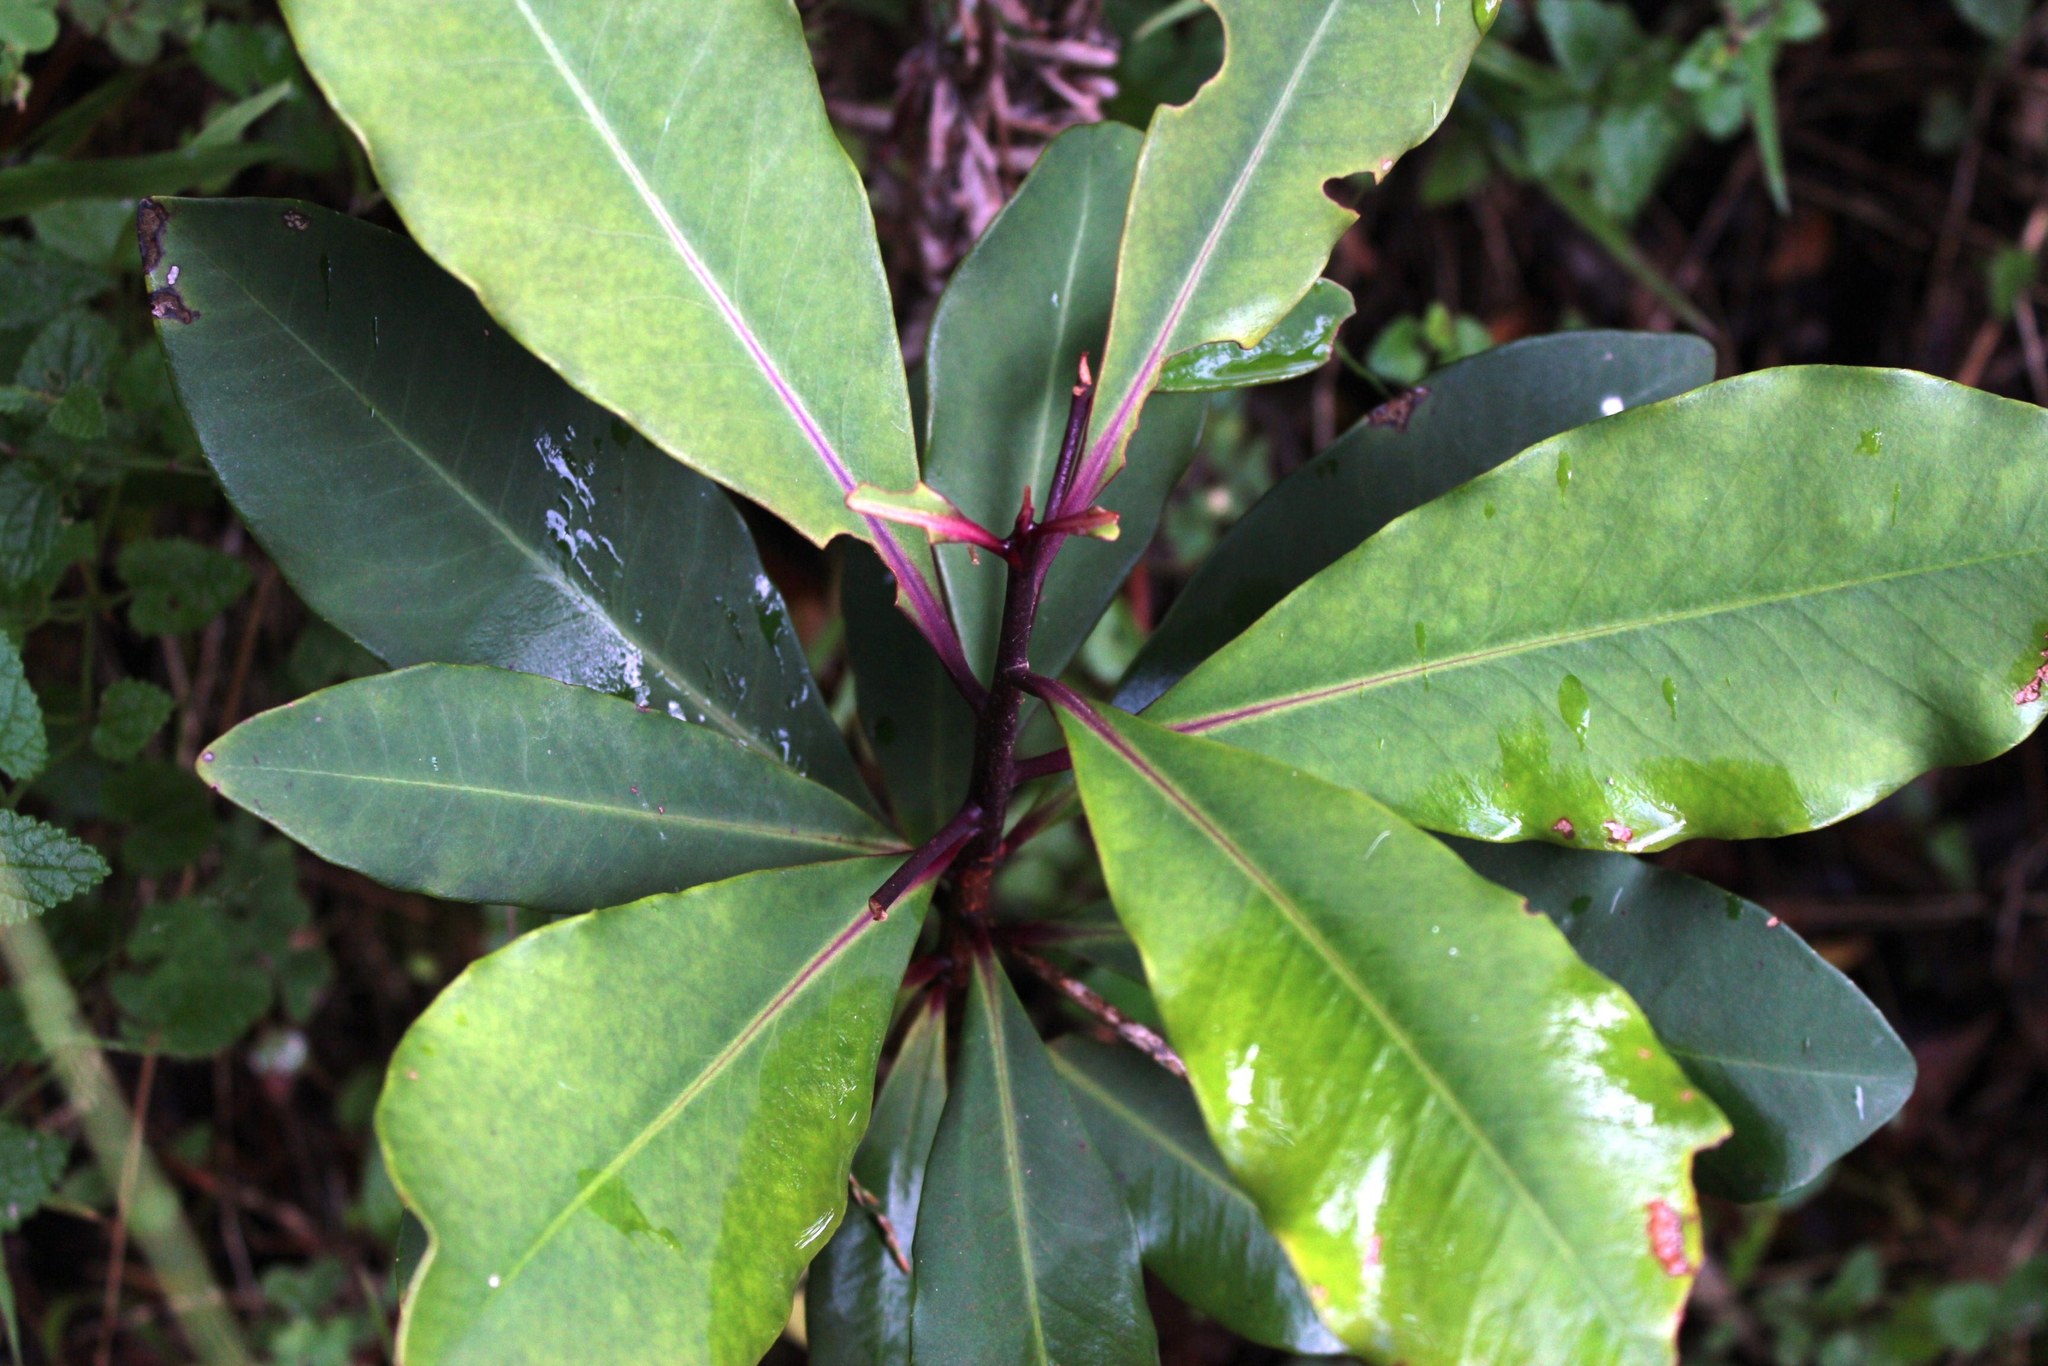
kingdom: Plantae
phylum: Tracheophyta
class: Magnoliopsida
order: Ericales
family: Primulaceae
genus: Myrsine
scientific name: Myrsine melanophloeos
